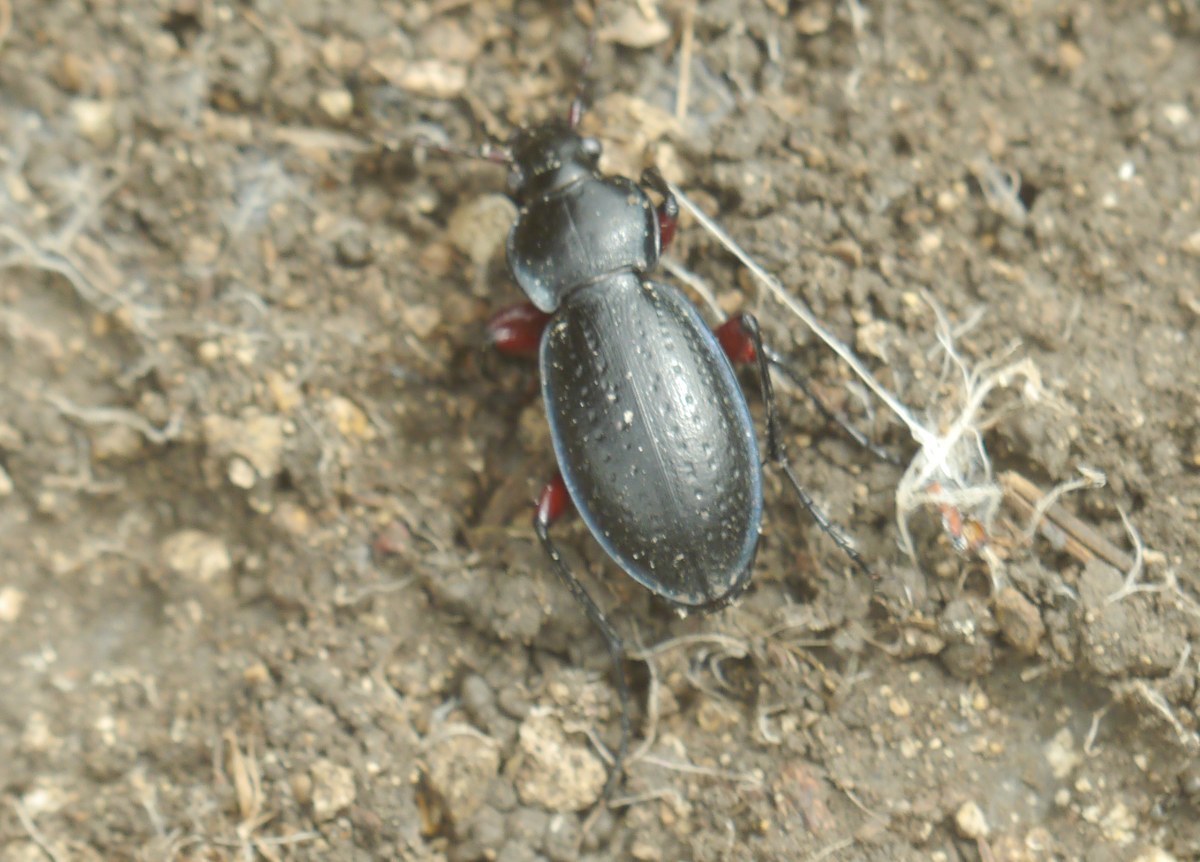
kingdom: Animalia
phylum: Arthropoda
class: Insecta
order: Coleoptera
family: Carabidae
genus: Carabus
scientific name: Carabus besseri
